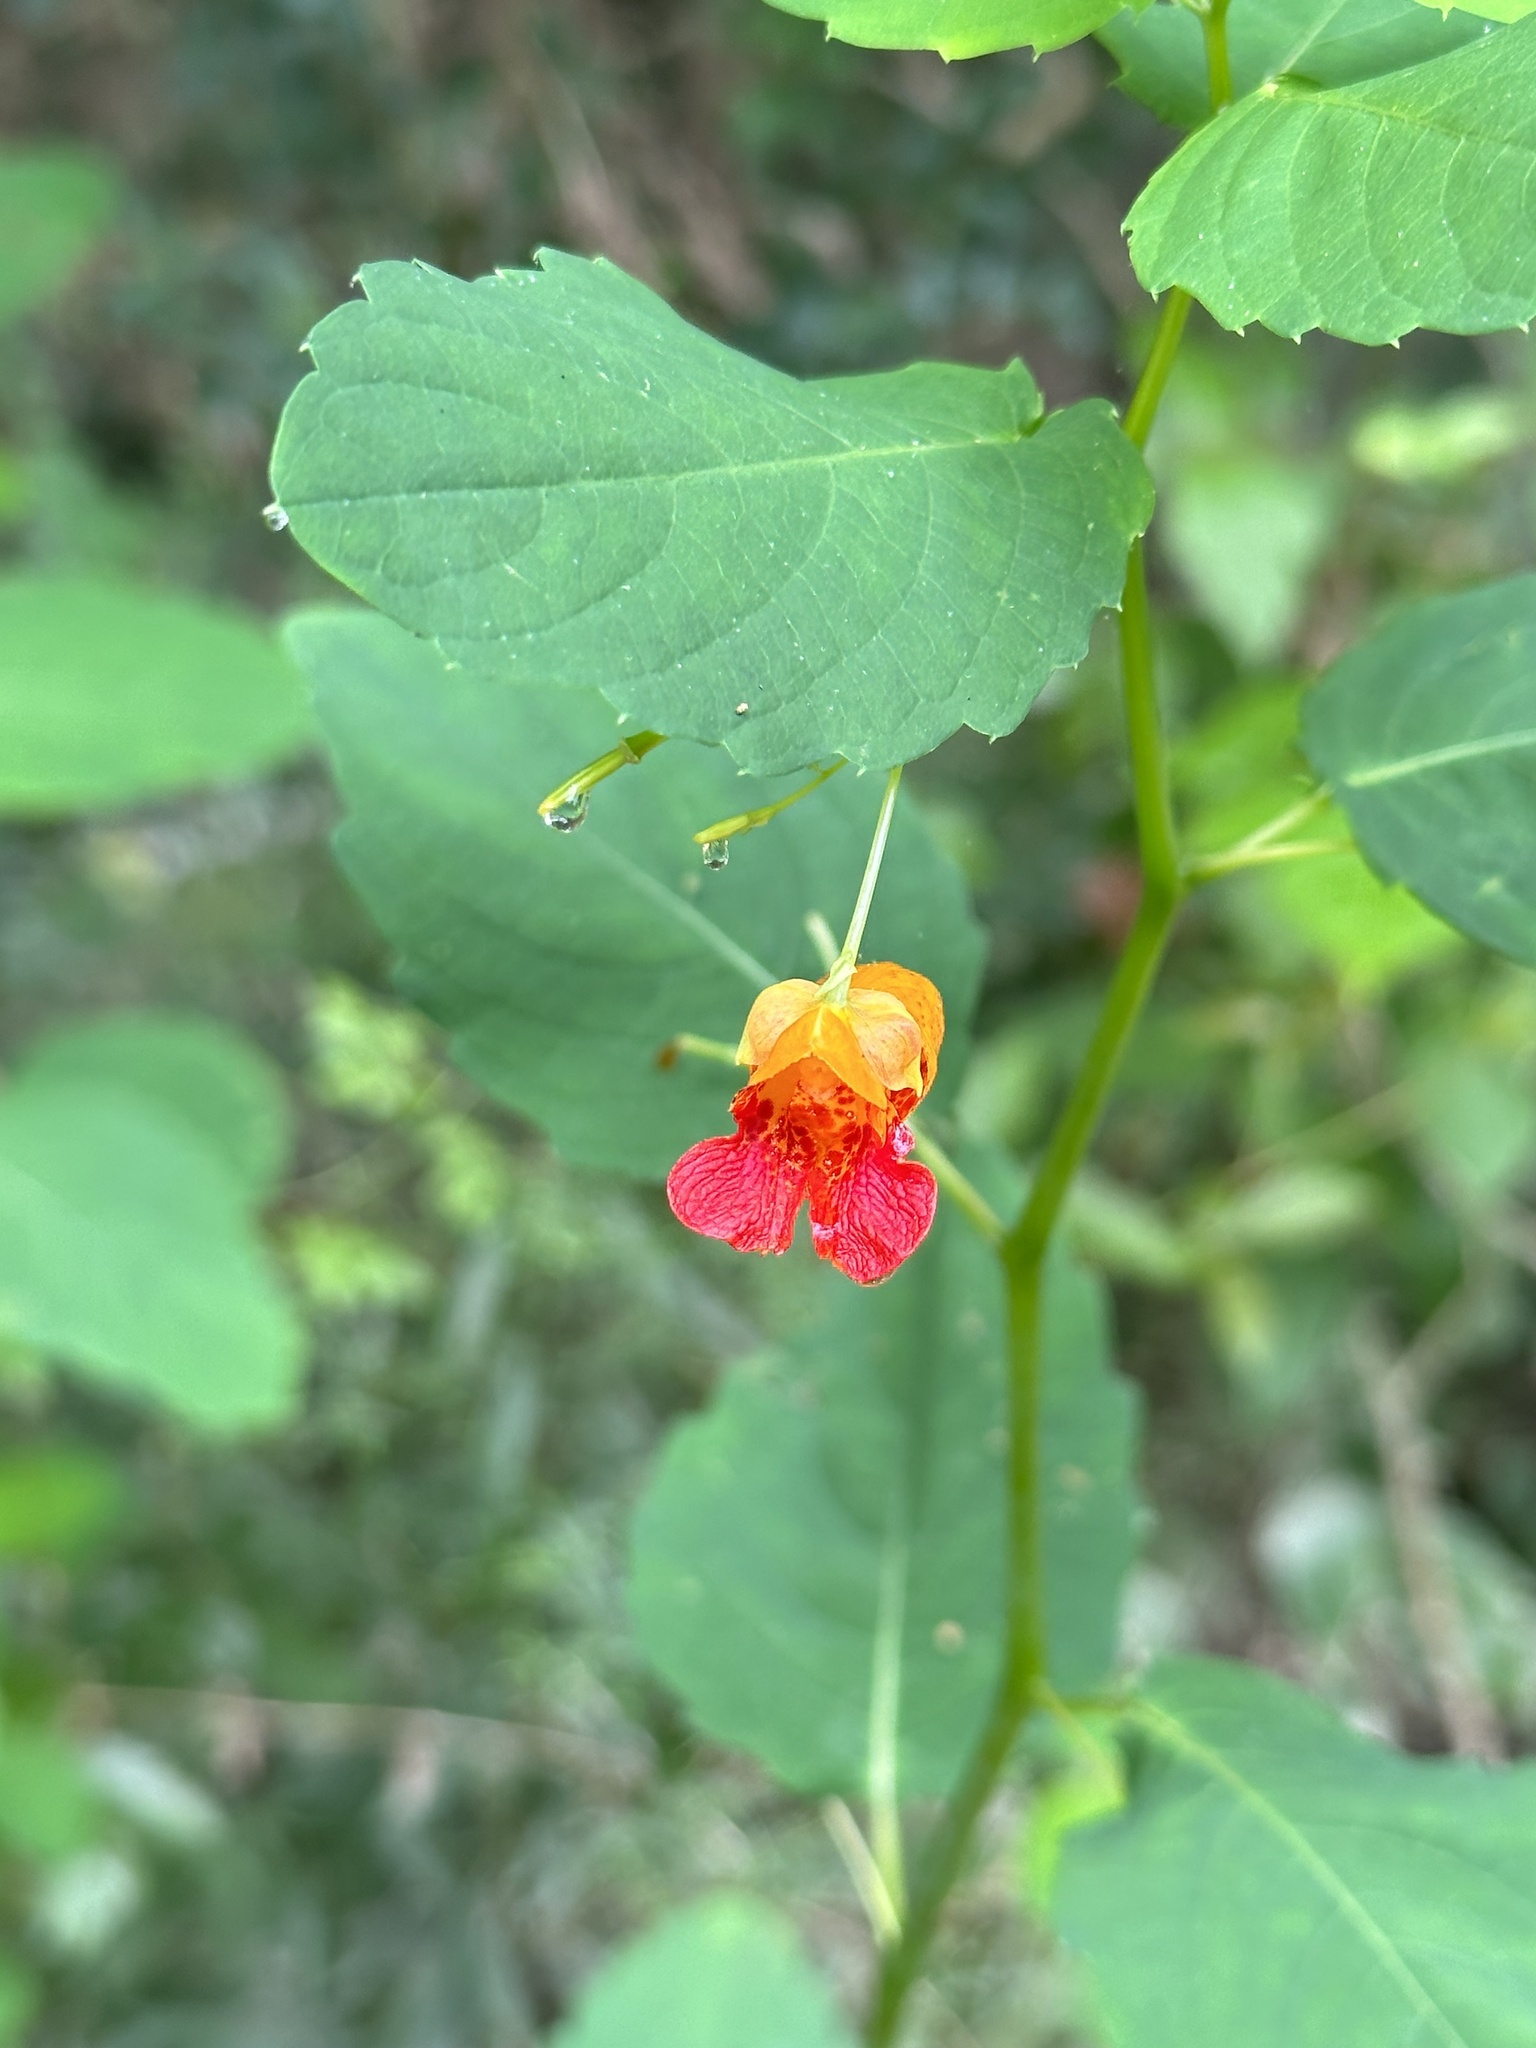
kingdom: Plantae
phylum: Tracheophyta
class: Magnoliopsida
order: Ericales
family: Balsaminaceae
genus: Impatiens
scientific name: Impatiens capensis
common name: Orange balsam
